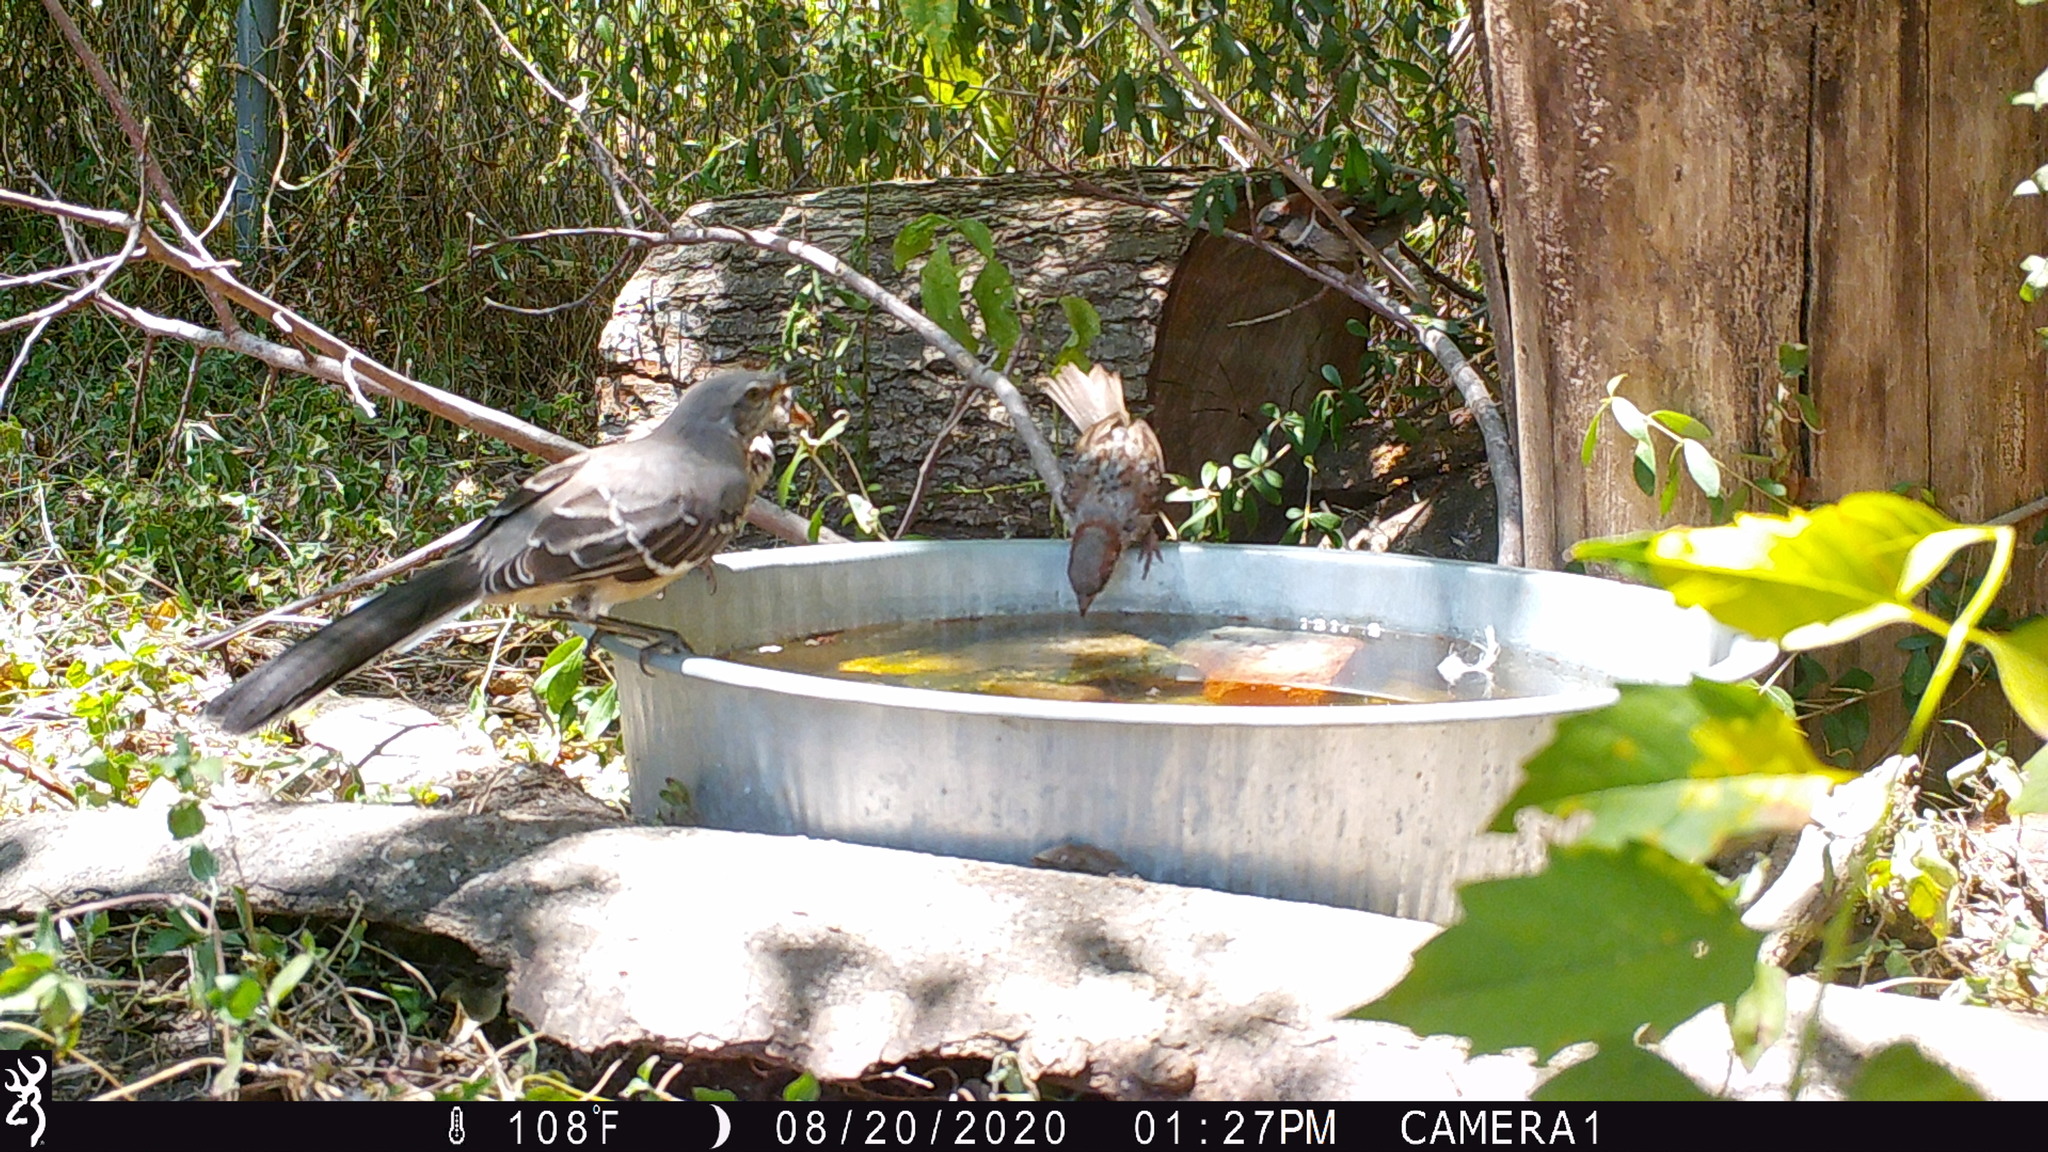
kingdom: Animalia
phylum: Chordata
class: Aves
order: Passeriformes
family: Mimidae
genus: Mimus
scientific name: Mimus polyglottos
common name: Northern mockingbird
